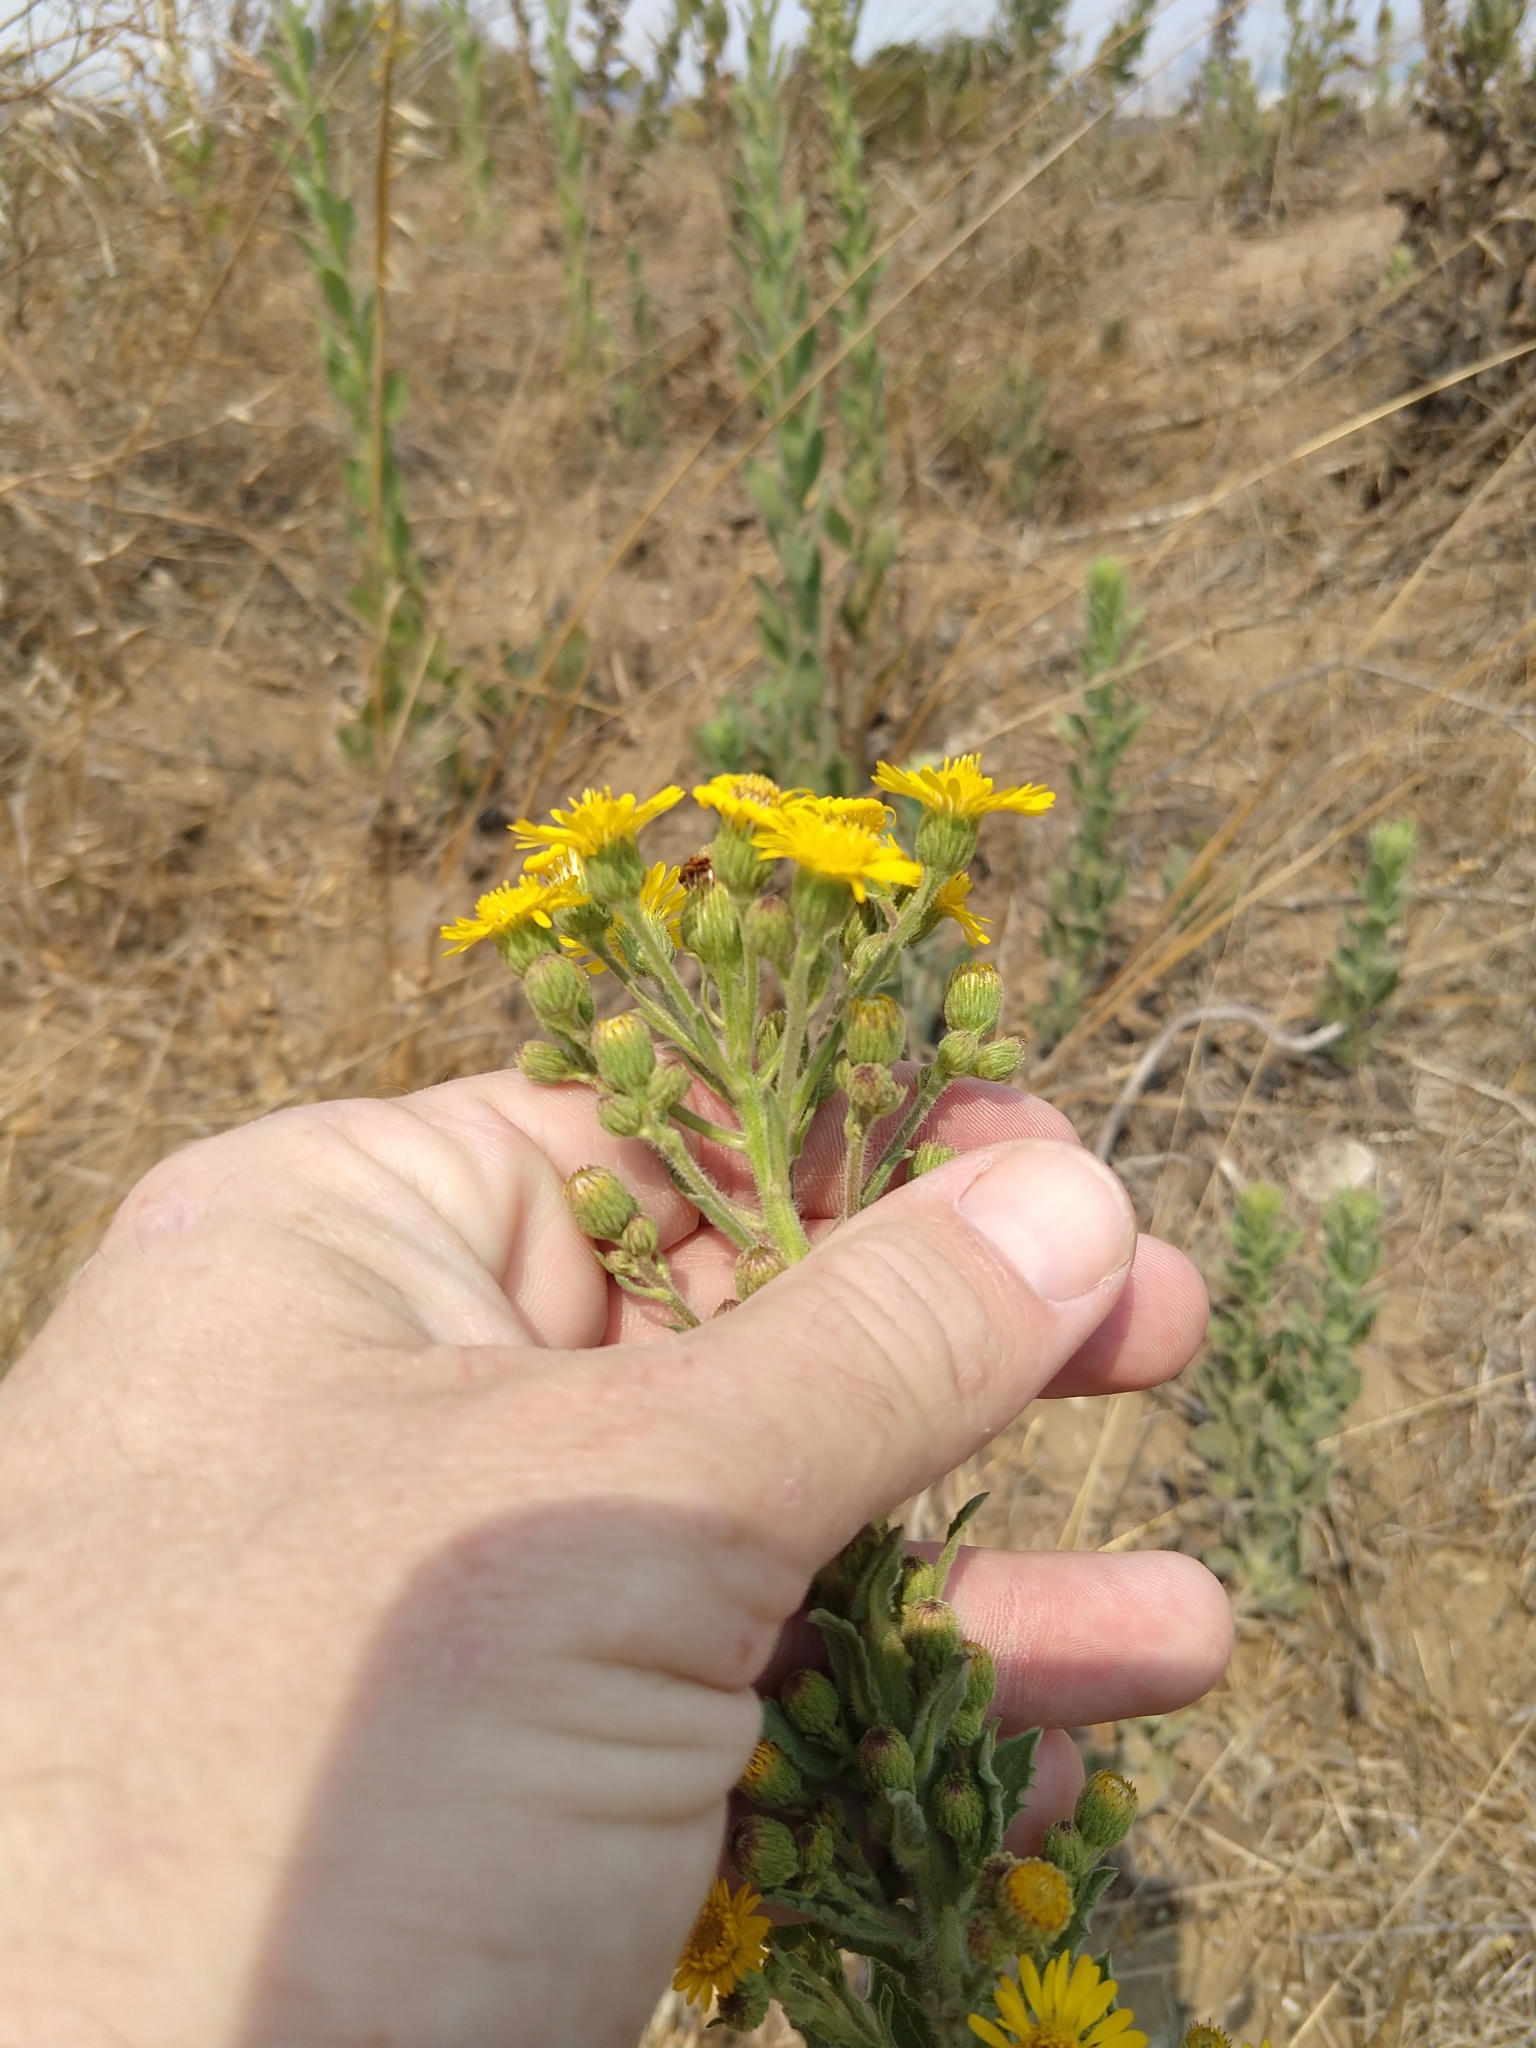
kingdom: Plantae
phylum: Tracheophyta
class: Magnoliopsida
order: Asterales
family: Asteraceae
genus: Heterotheca
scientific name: Heterotheca grandiflora
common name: Telegraphweed
